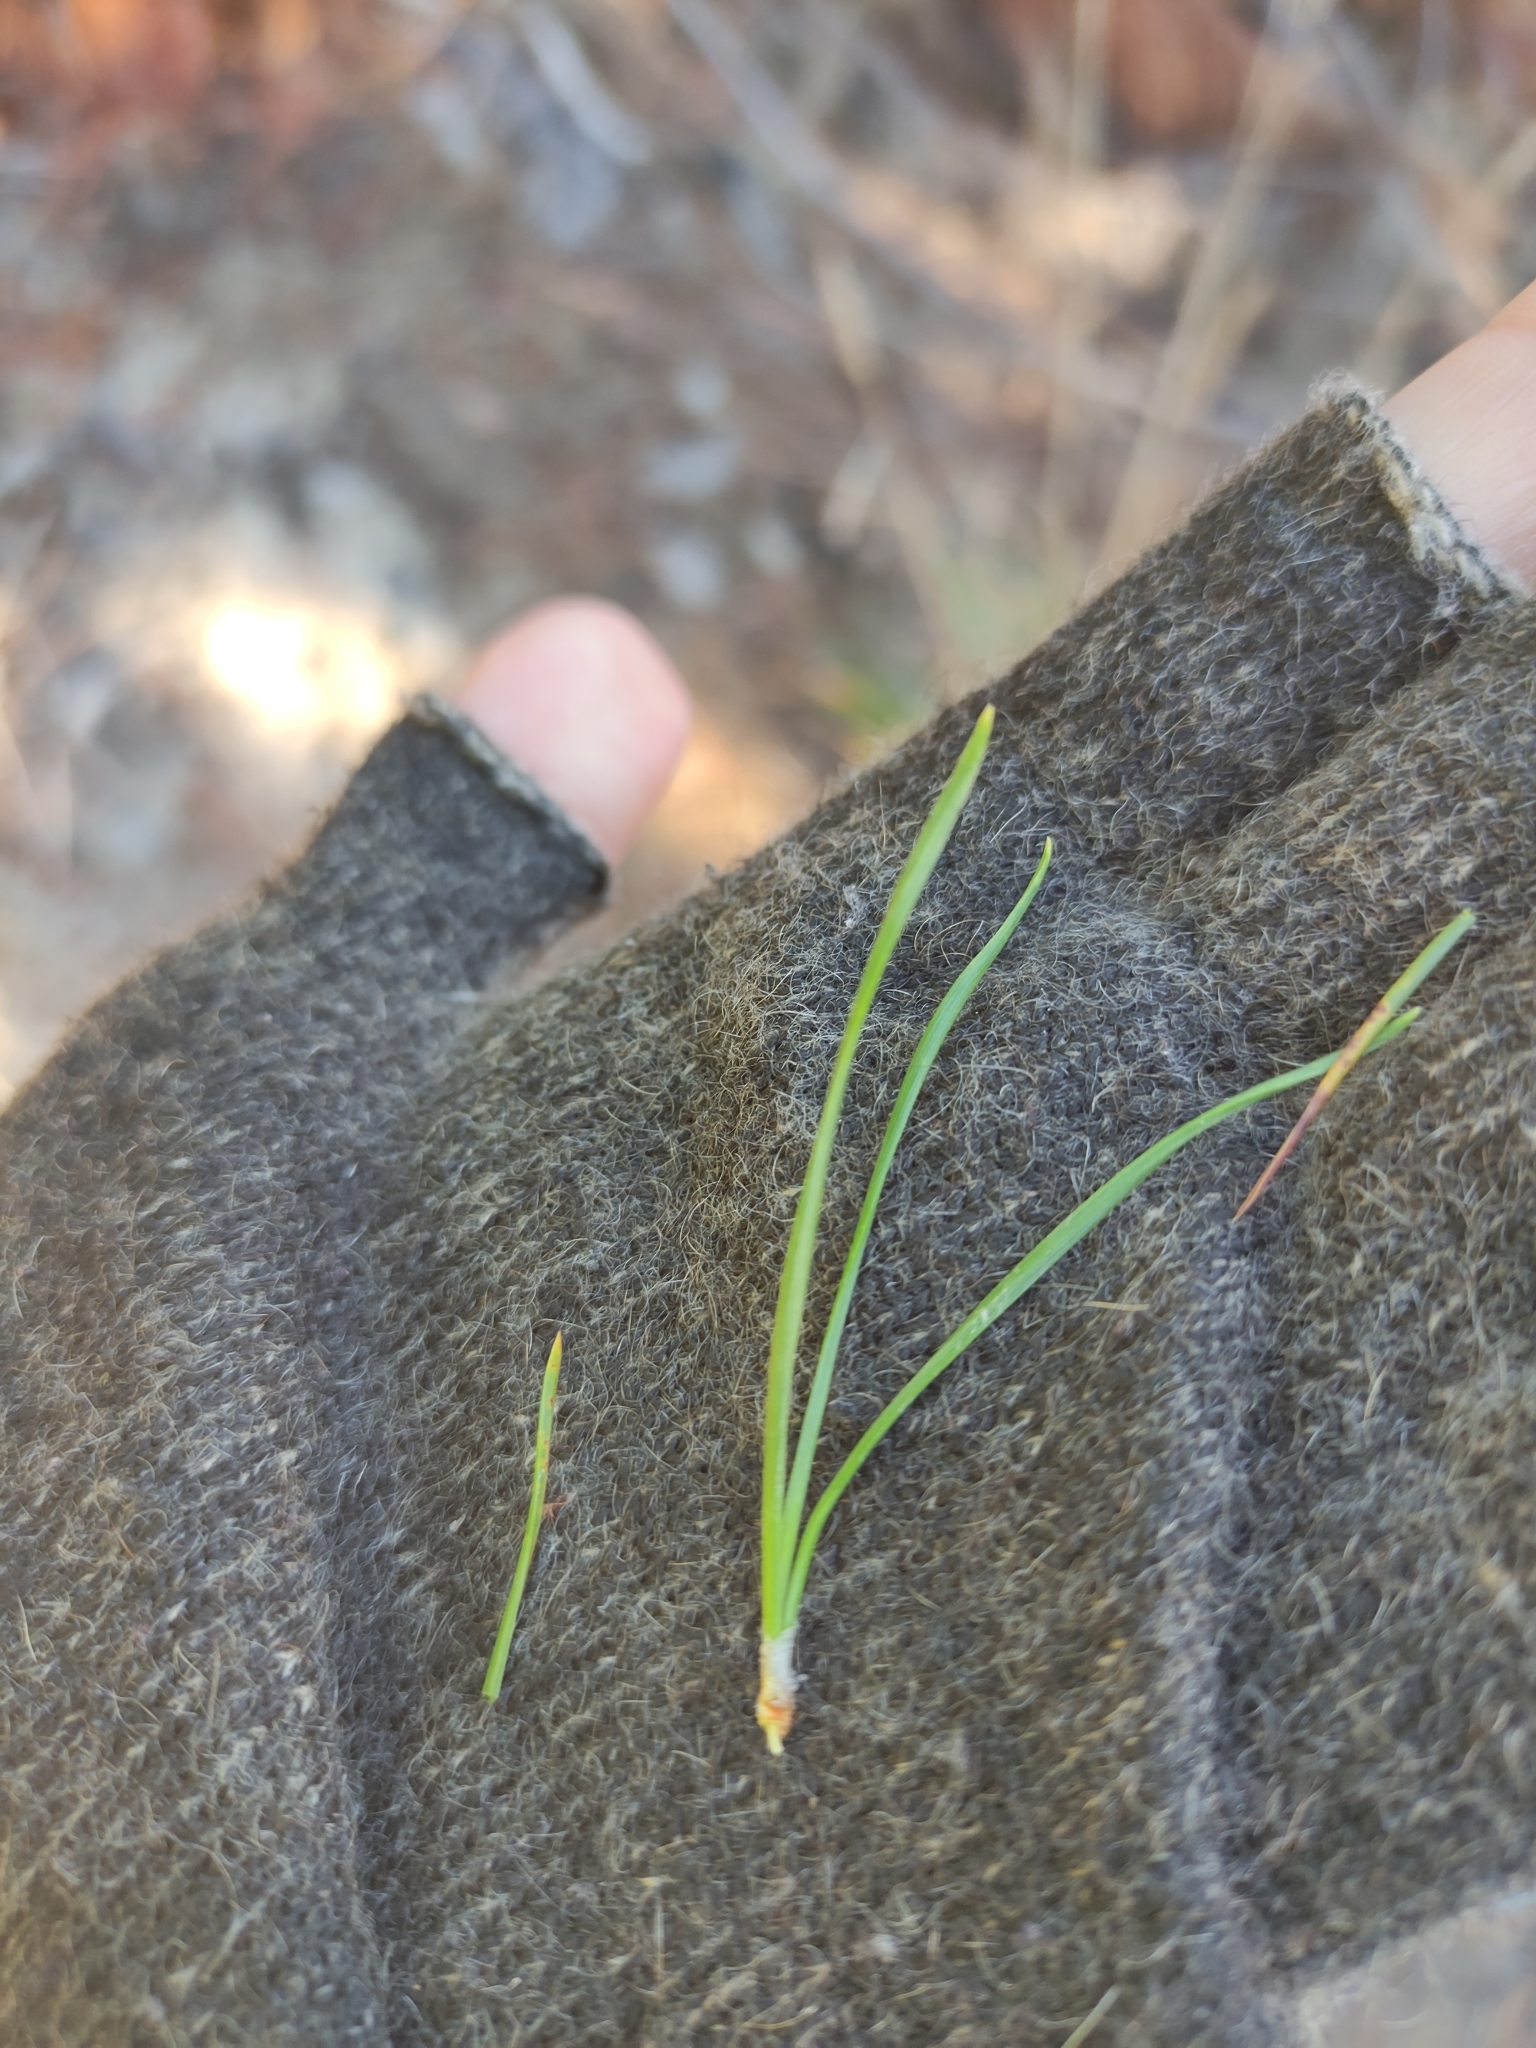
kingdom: Plantae
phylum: Tracheophyta
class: Pinopsida
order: Pinales
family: Pinaceae
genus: Pinus
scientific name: Pinus radiata
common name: Monterey pine
